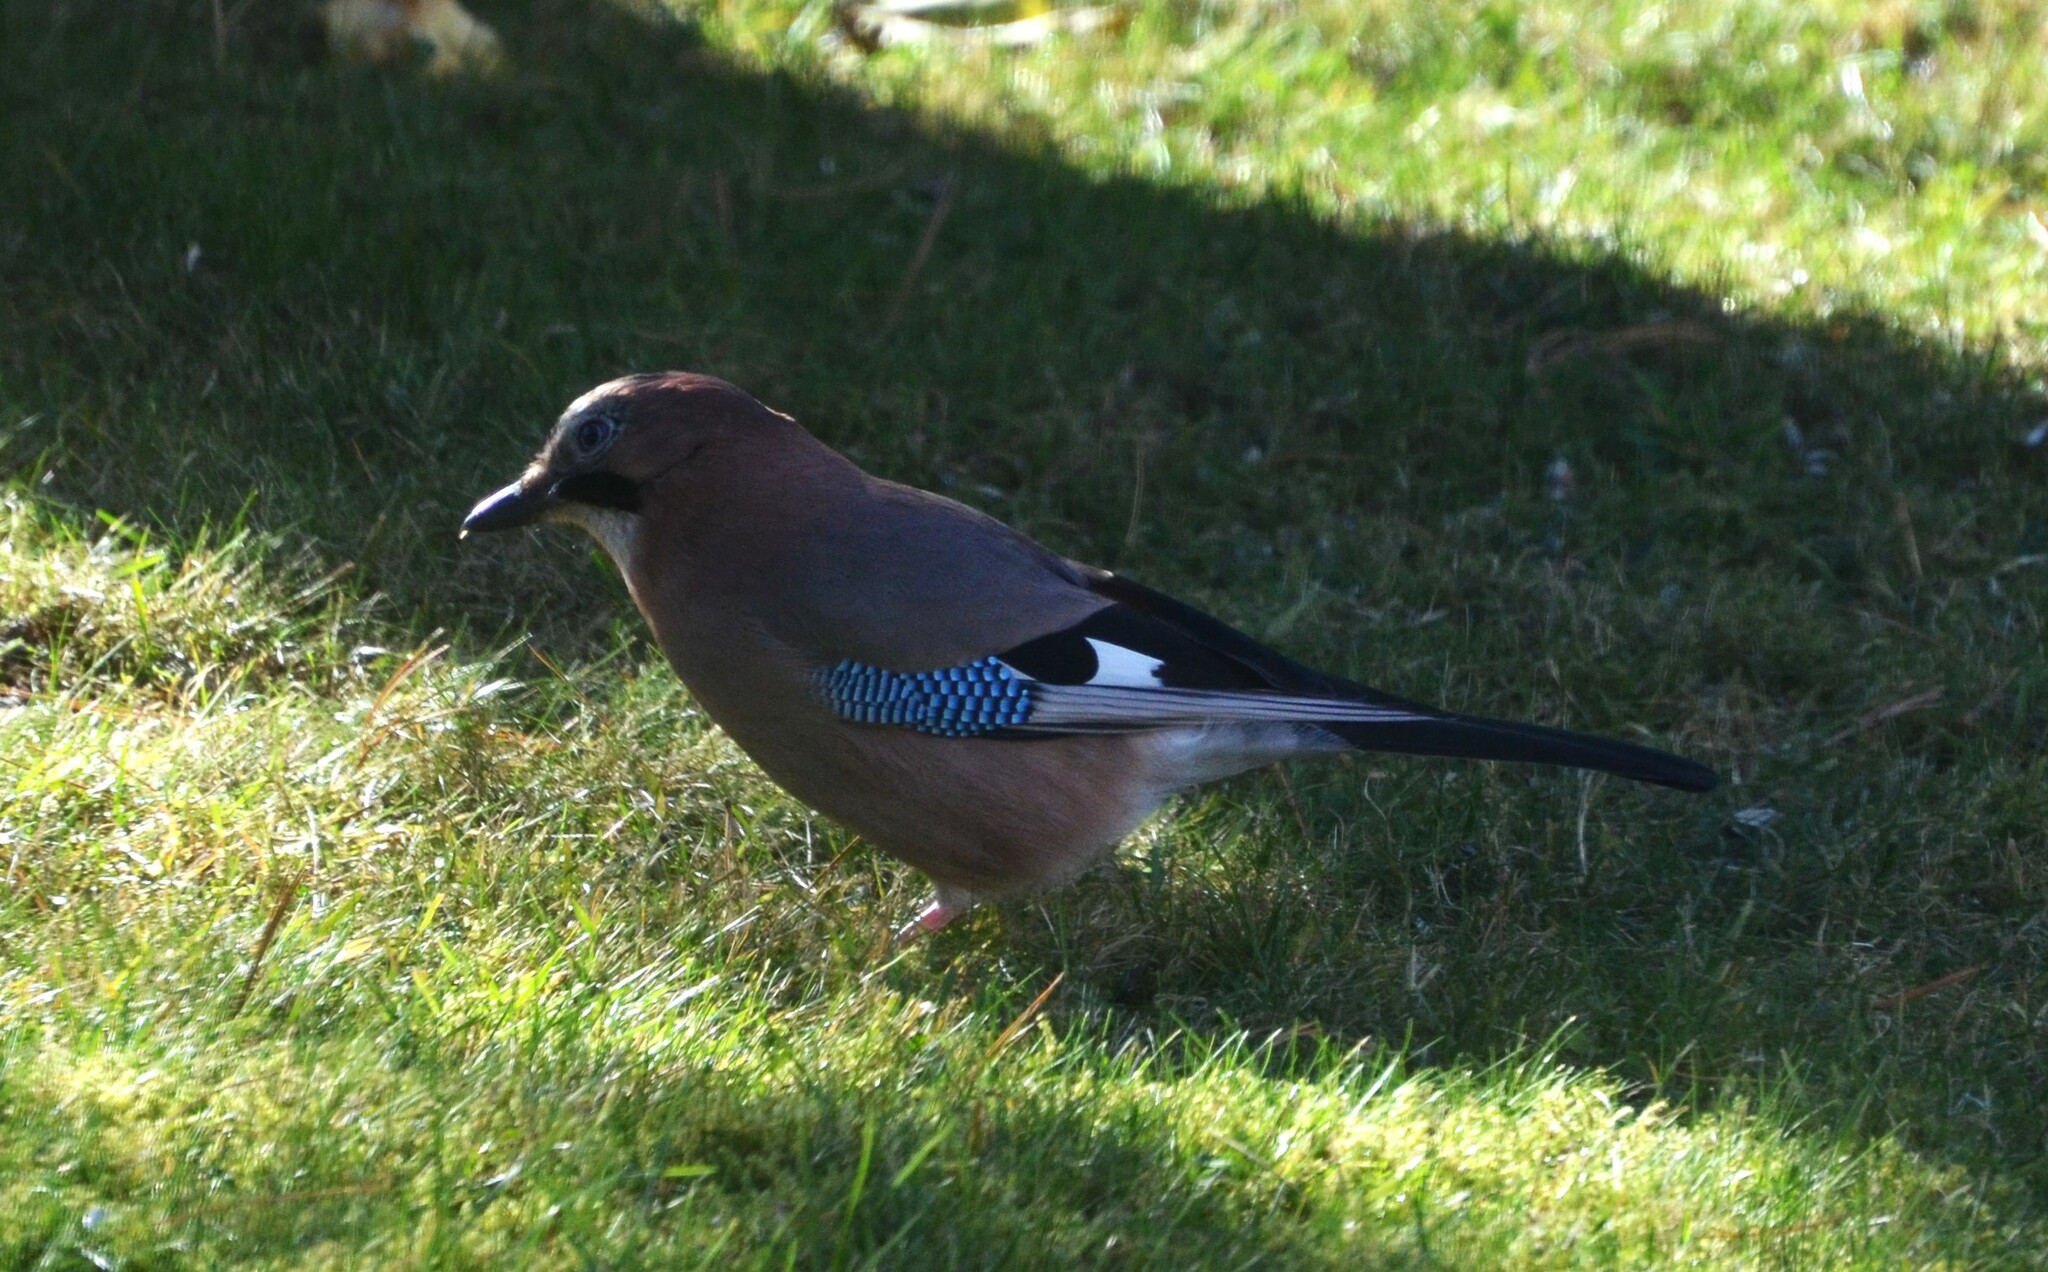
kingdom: Animalia
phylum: Chordata
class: Aves
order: Passeriformes
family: Corvidae
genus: Garrulus
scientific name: Garrulus glandarius
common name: Eurasian jay
